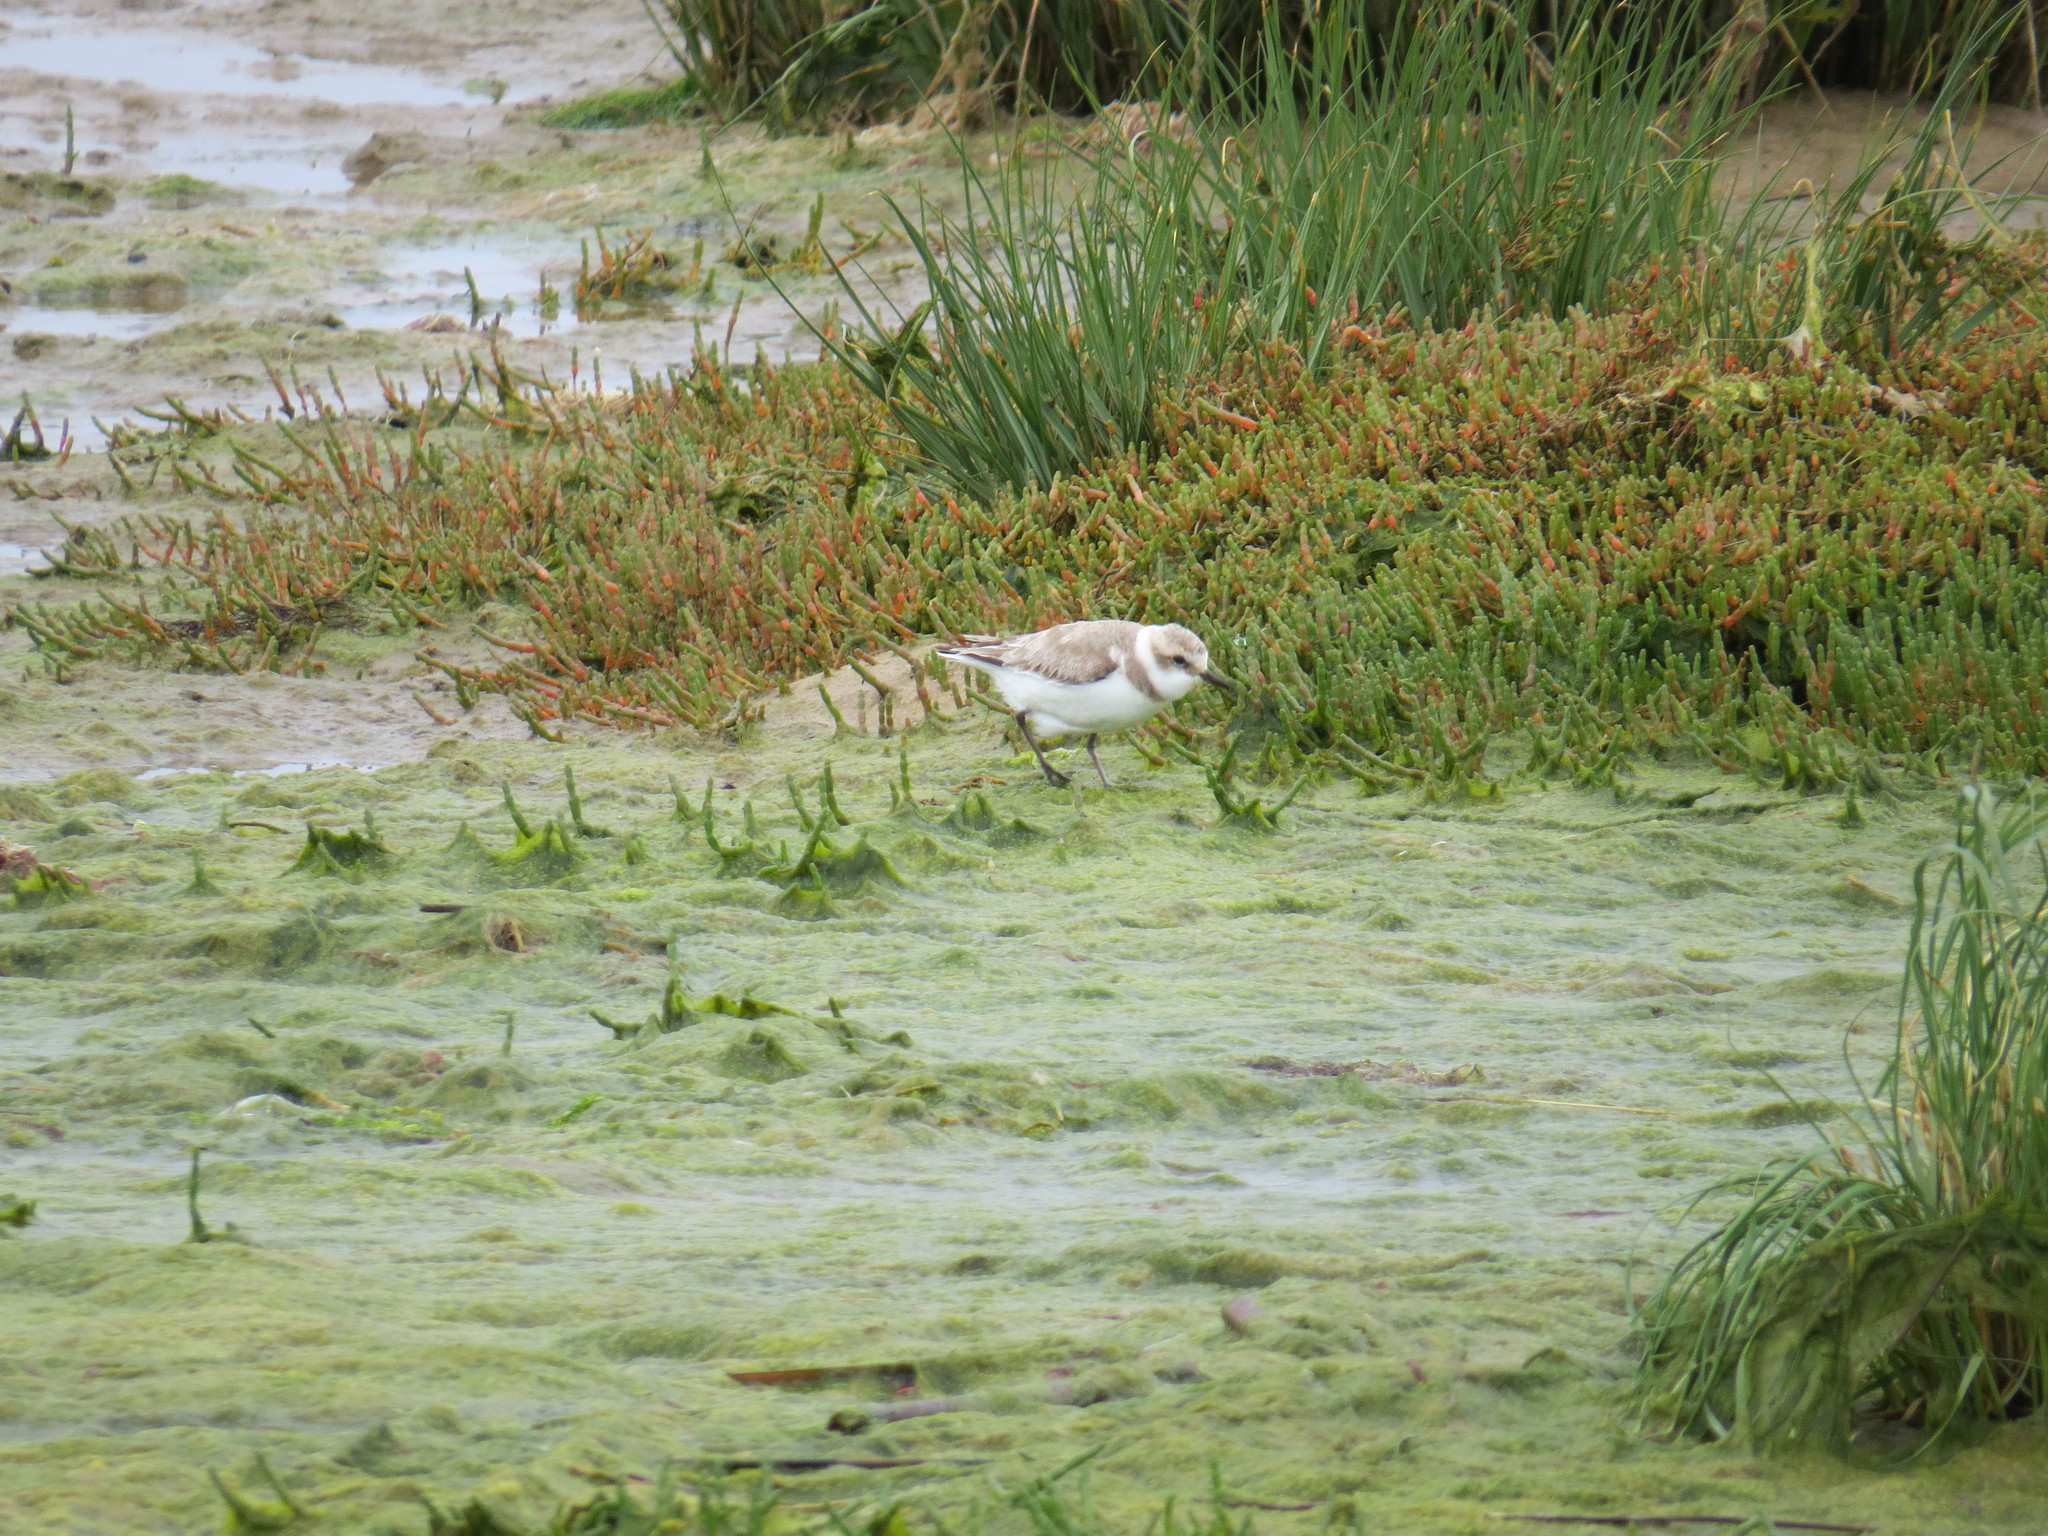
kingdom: Animalia
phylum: Chordata
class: Aves
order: Charadriiformes
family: Charadriidae
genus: Charadrius
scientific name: Charadrius alexandrinus
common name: Kentish plover
